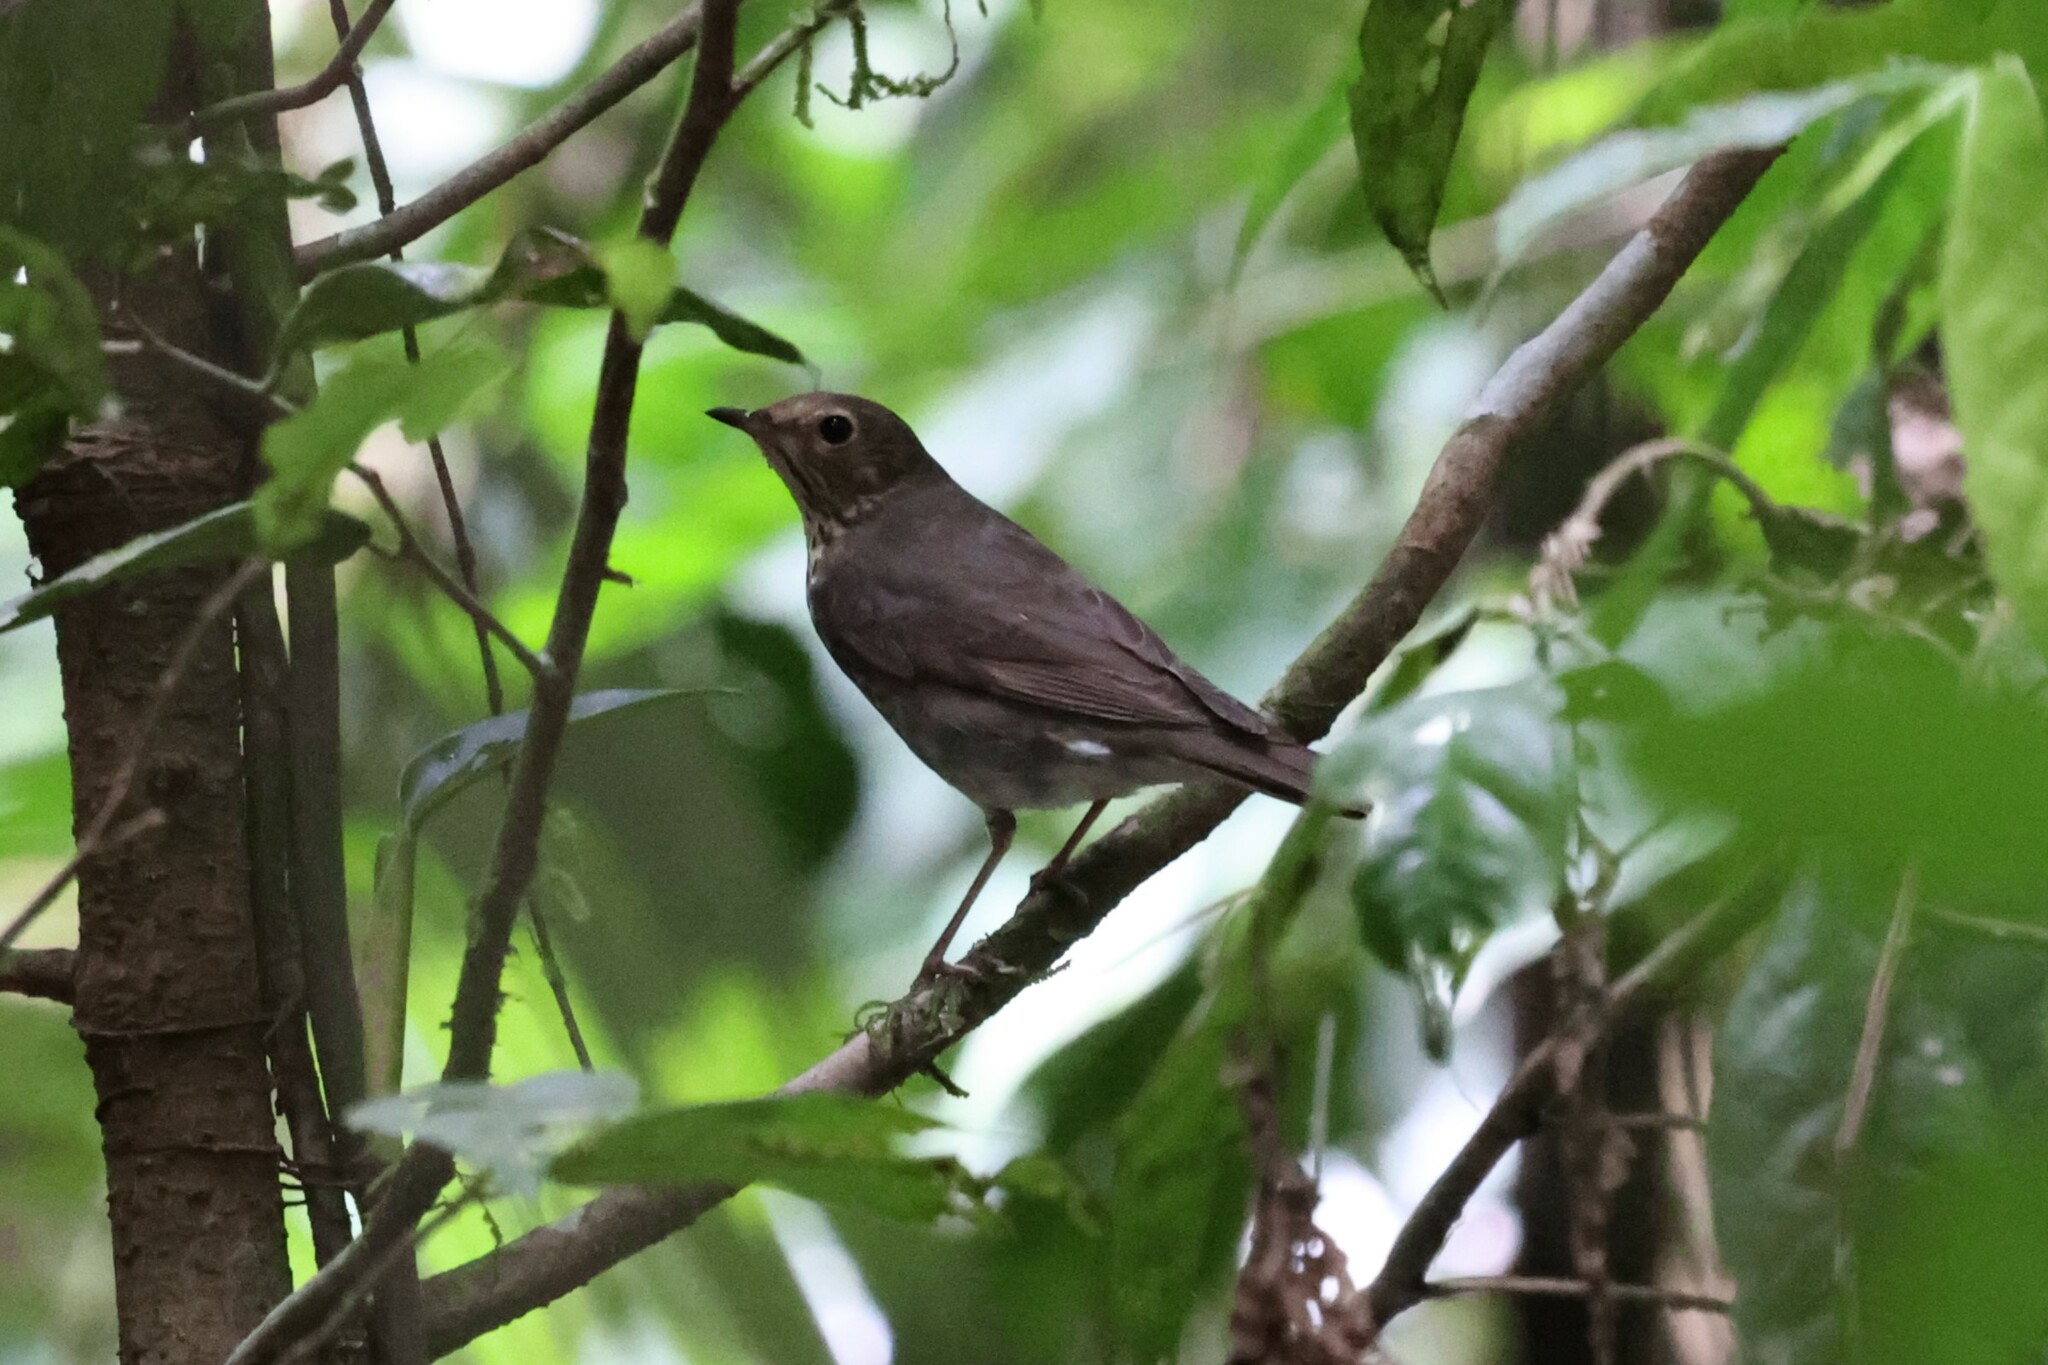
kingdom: Animalia
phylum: Chordata
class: Aves
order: Passeriformes
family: Turdidae
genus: Catharus
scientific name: Catharus ustulatus
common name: Swainson's thrush
